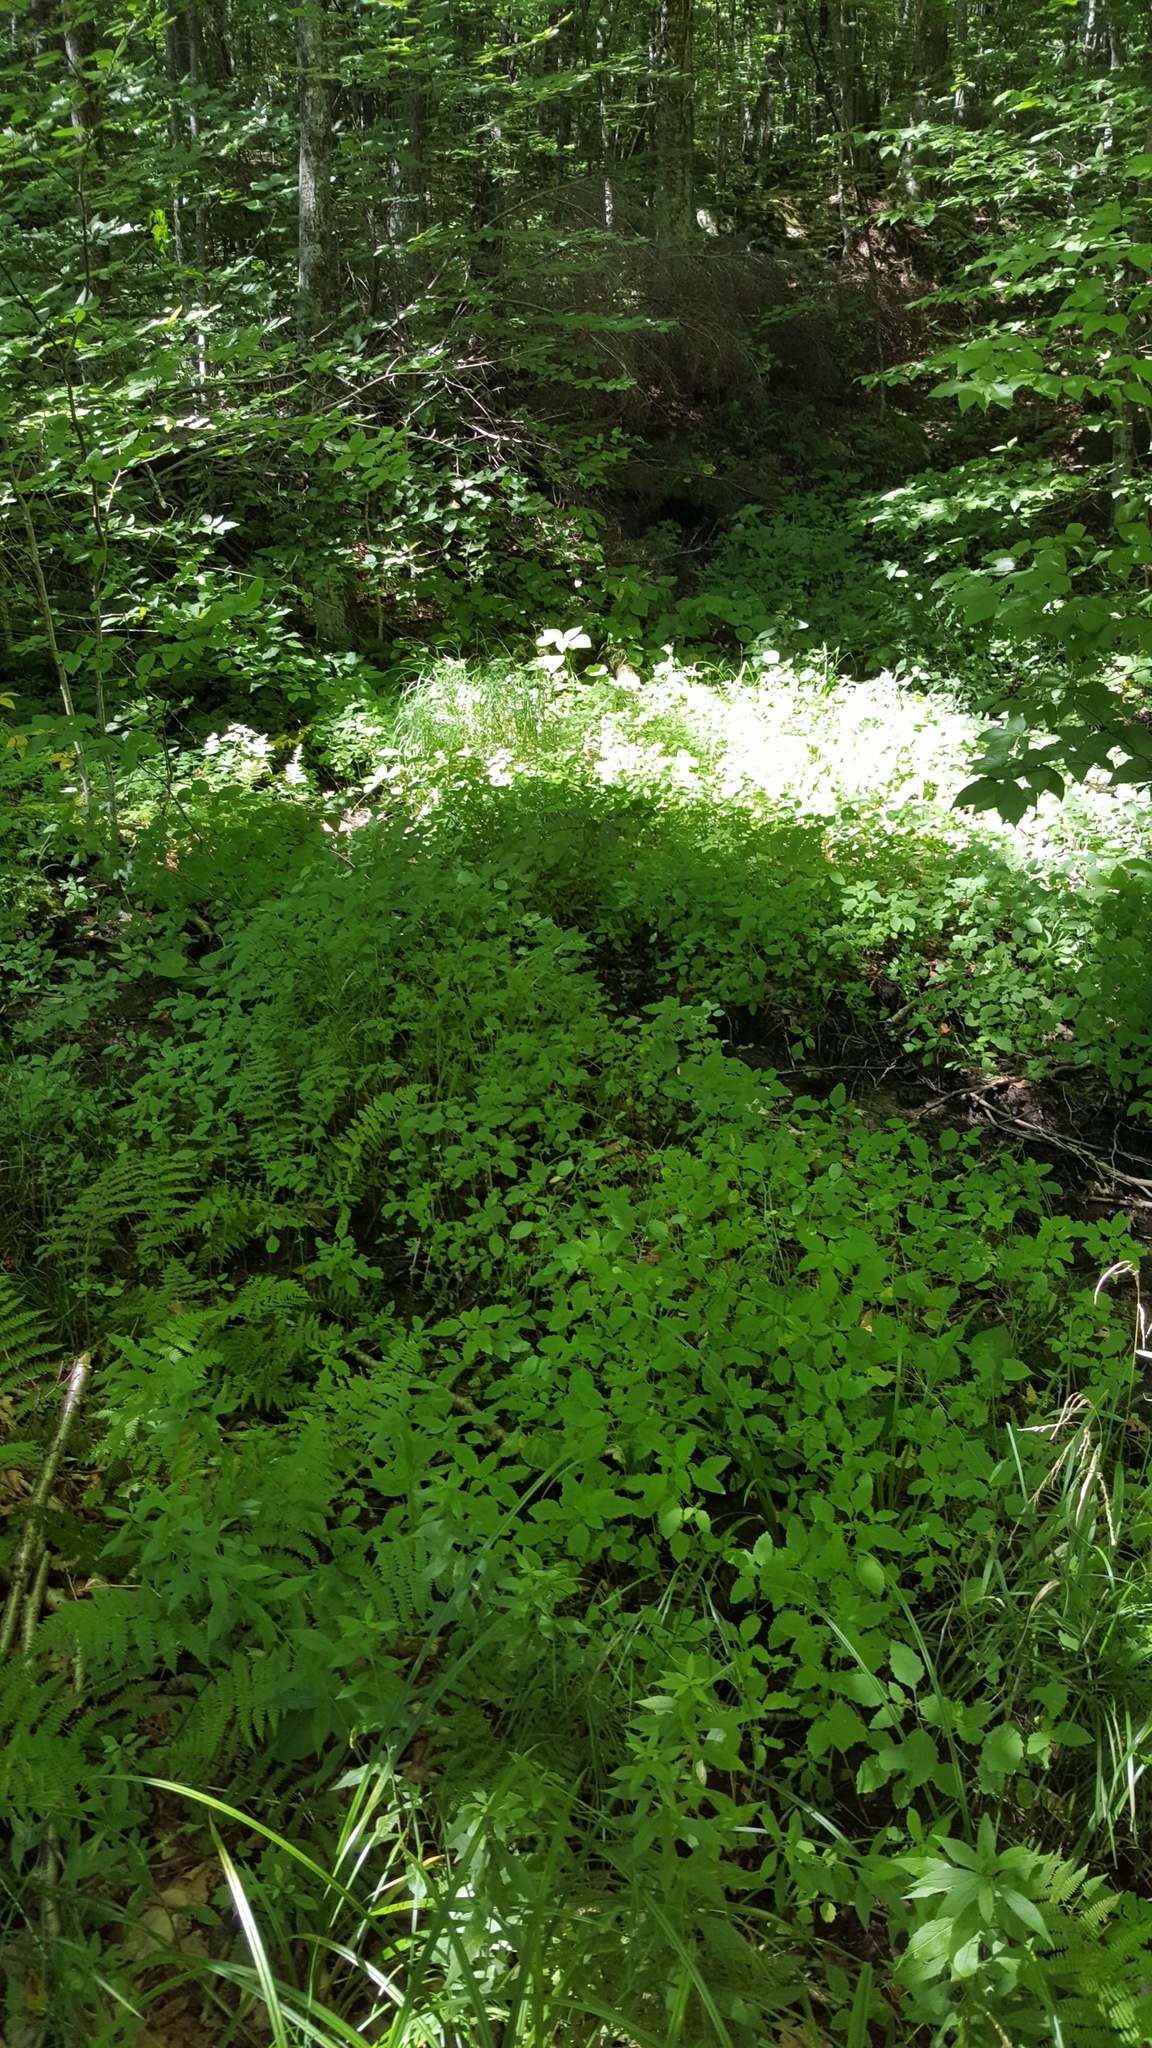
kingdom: Plantae
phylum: Tracheophyta
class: Magnoliopsida
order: Ericales
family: Balsaminaceae
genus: Impatiens
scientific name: Impatiens capensis
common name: Orange balsam
